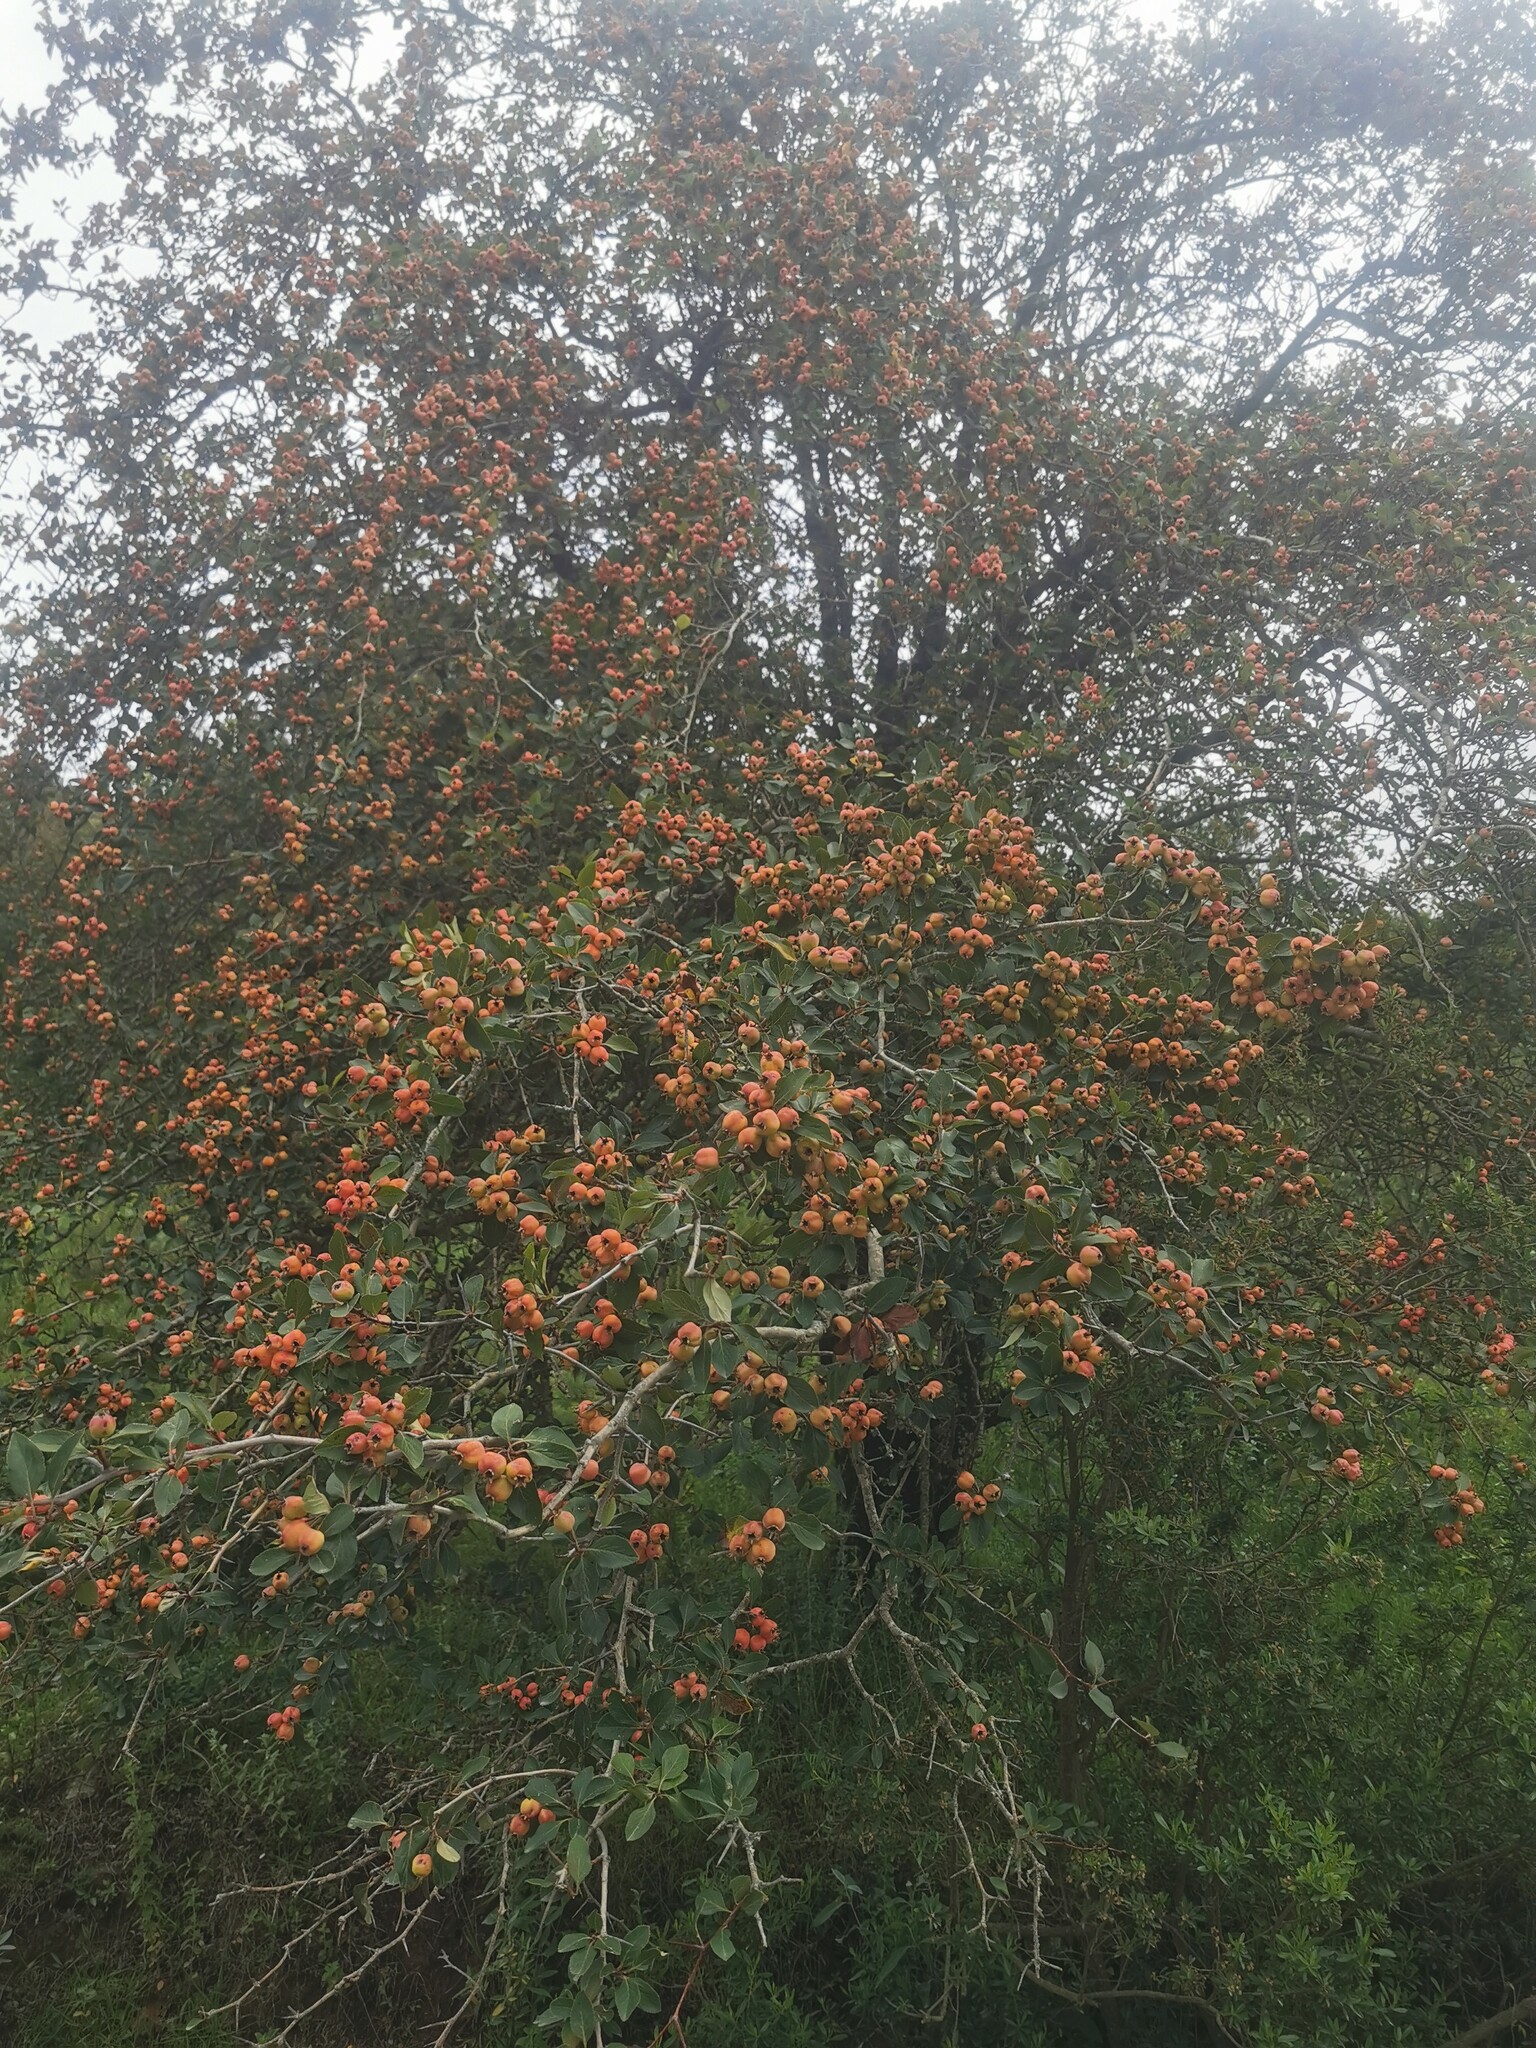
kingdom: Plantae
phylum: Tracheophyta
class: Magnoliopsida
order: Rosales
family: Rosaceae
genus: Crataegus
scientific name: Crataegus mexicana
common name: Mexican hawthorn
